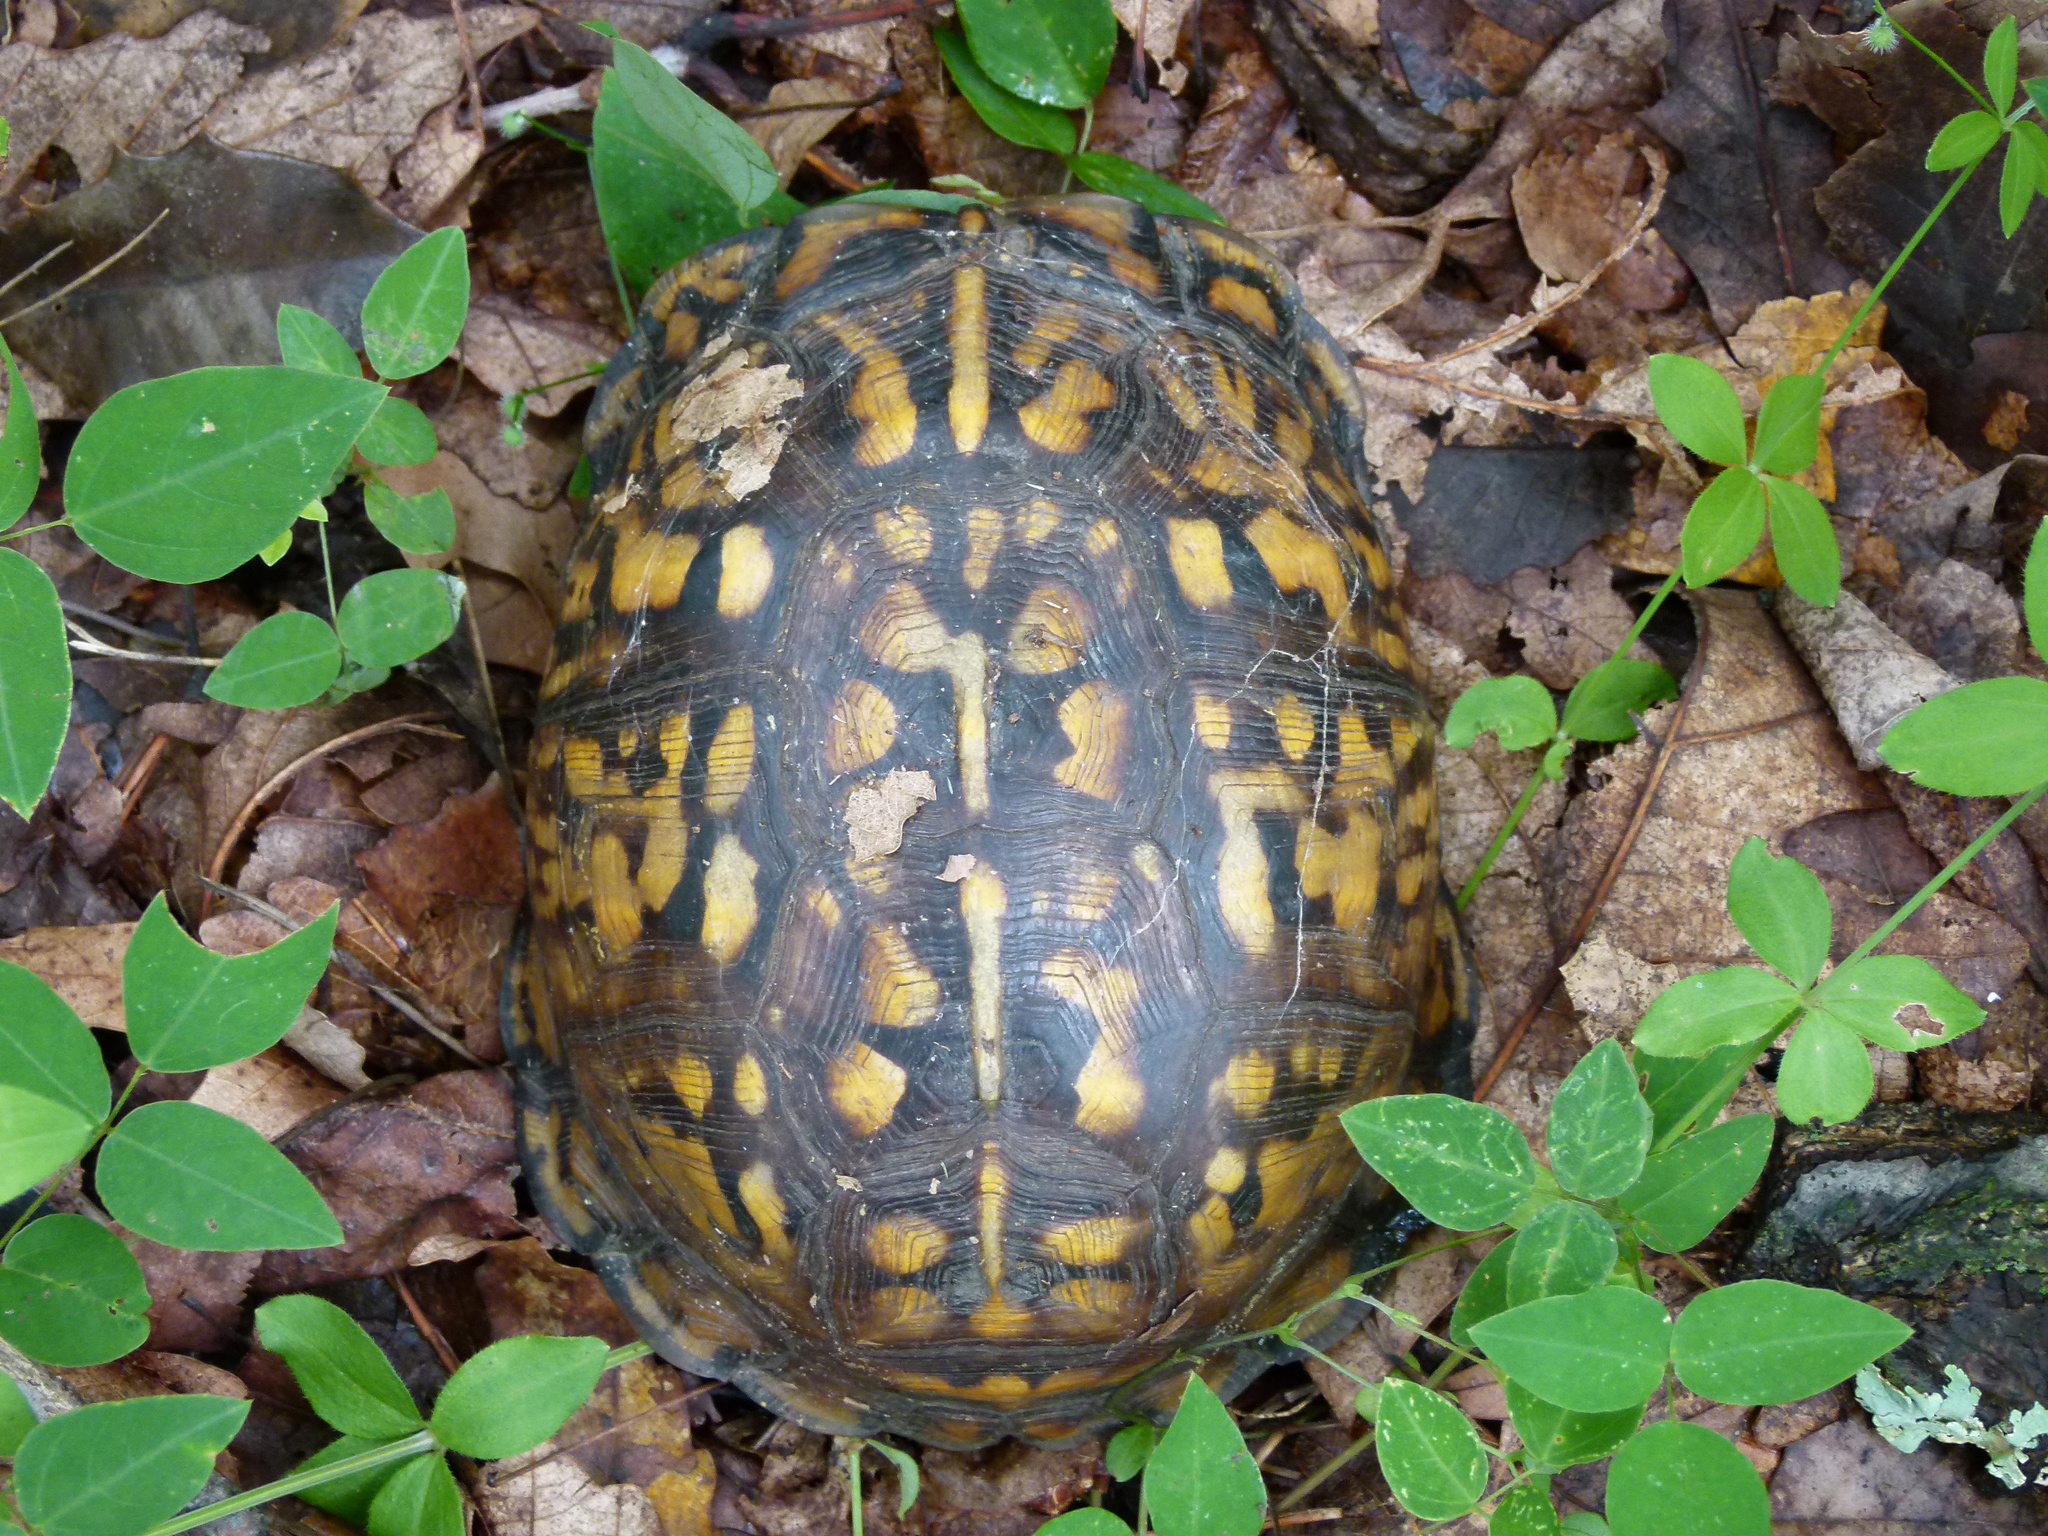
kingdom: Animalia
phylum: Chordata
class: Testudines
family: Emydidae
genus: Terrapene
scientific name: Terrapene carolina
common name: Common box turtle
